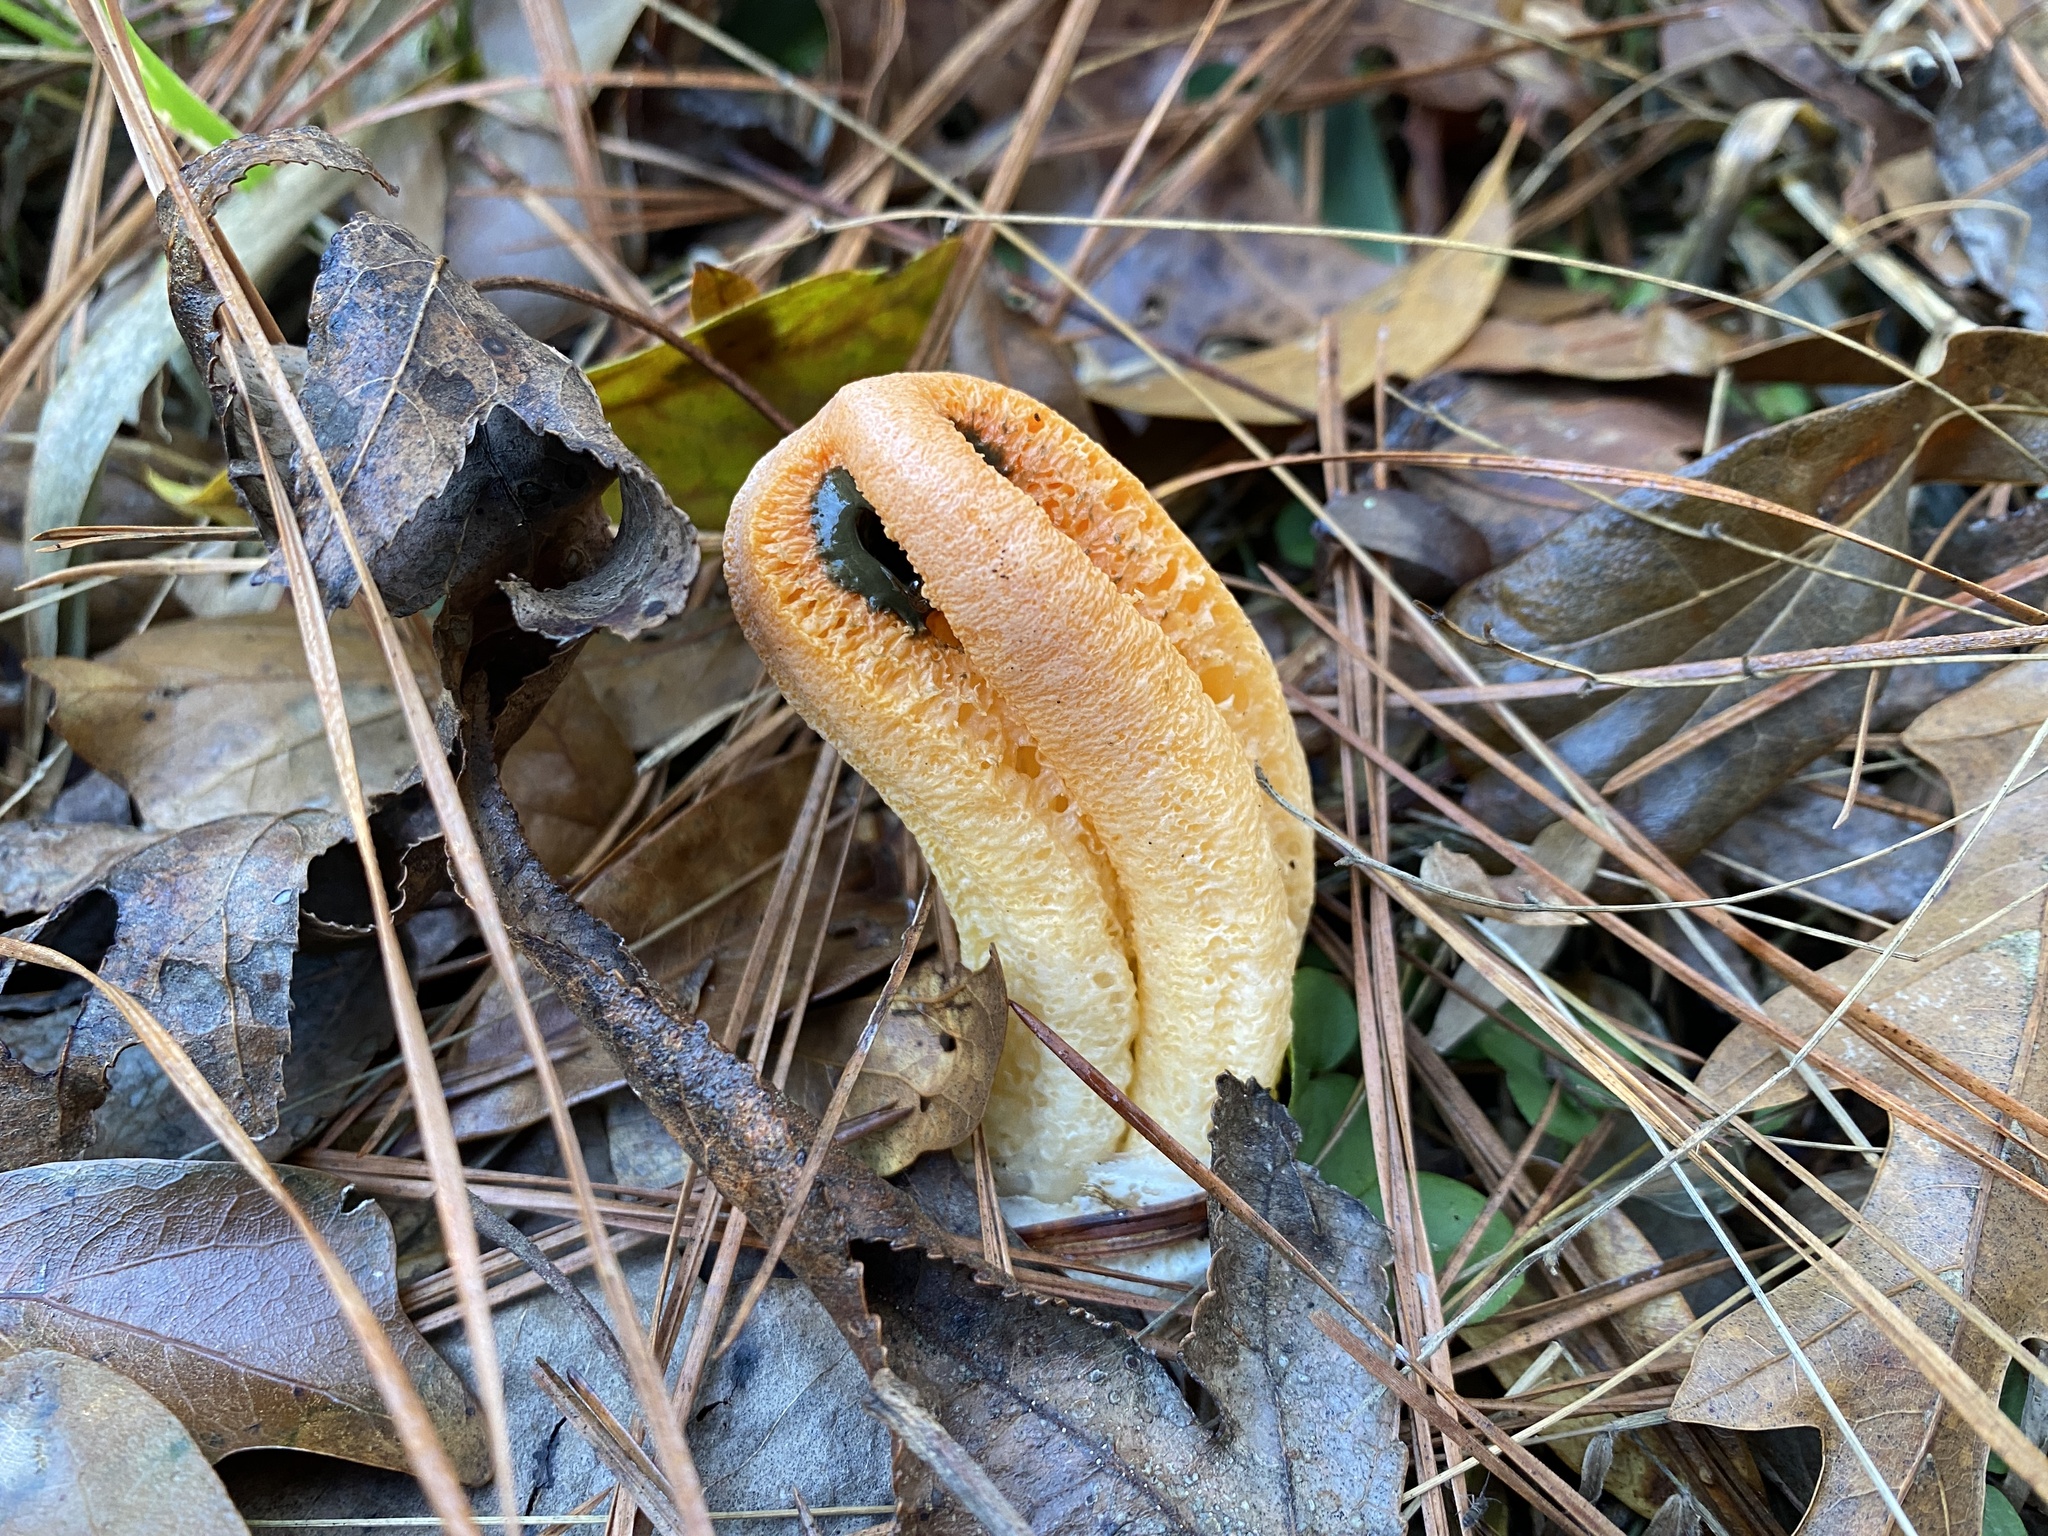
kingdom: Fungi
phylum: Basidiomycota
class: Agaricomycetes
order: Phallales
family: Phallaceae
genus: Clathrus
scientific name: Clathrus columnatus
